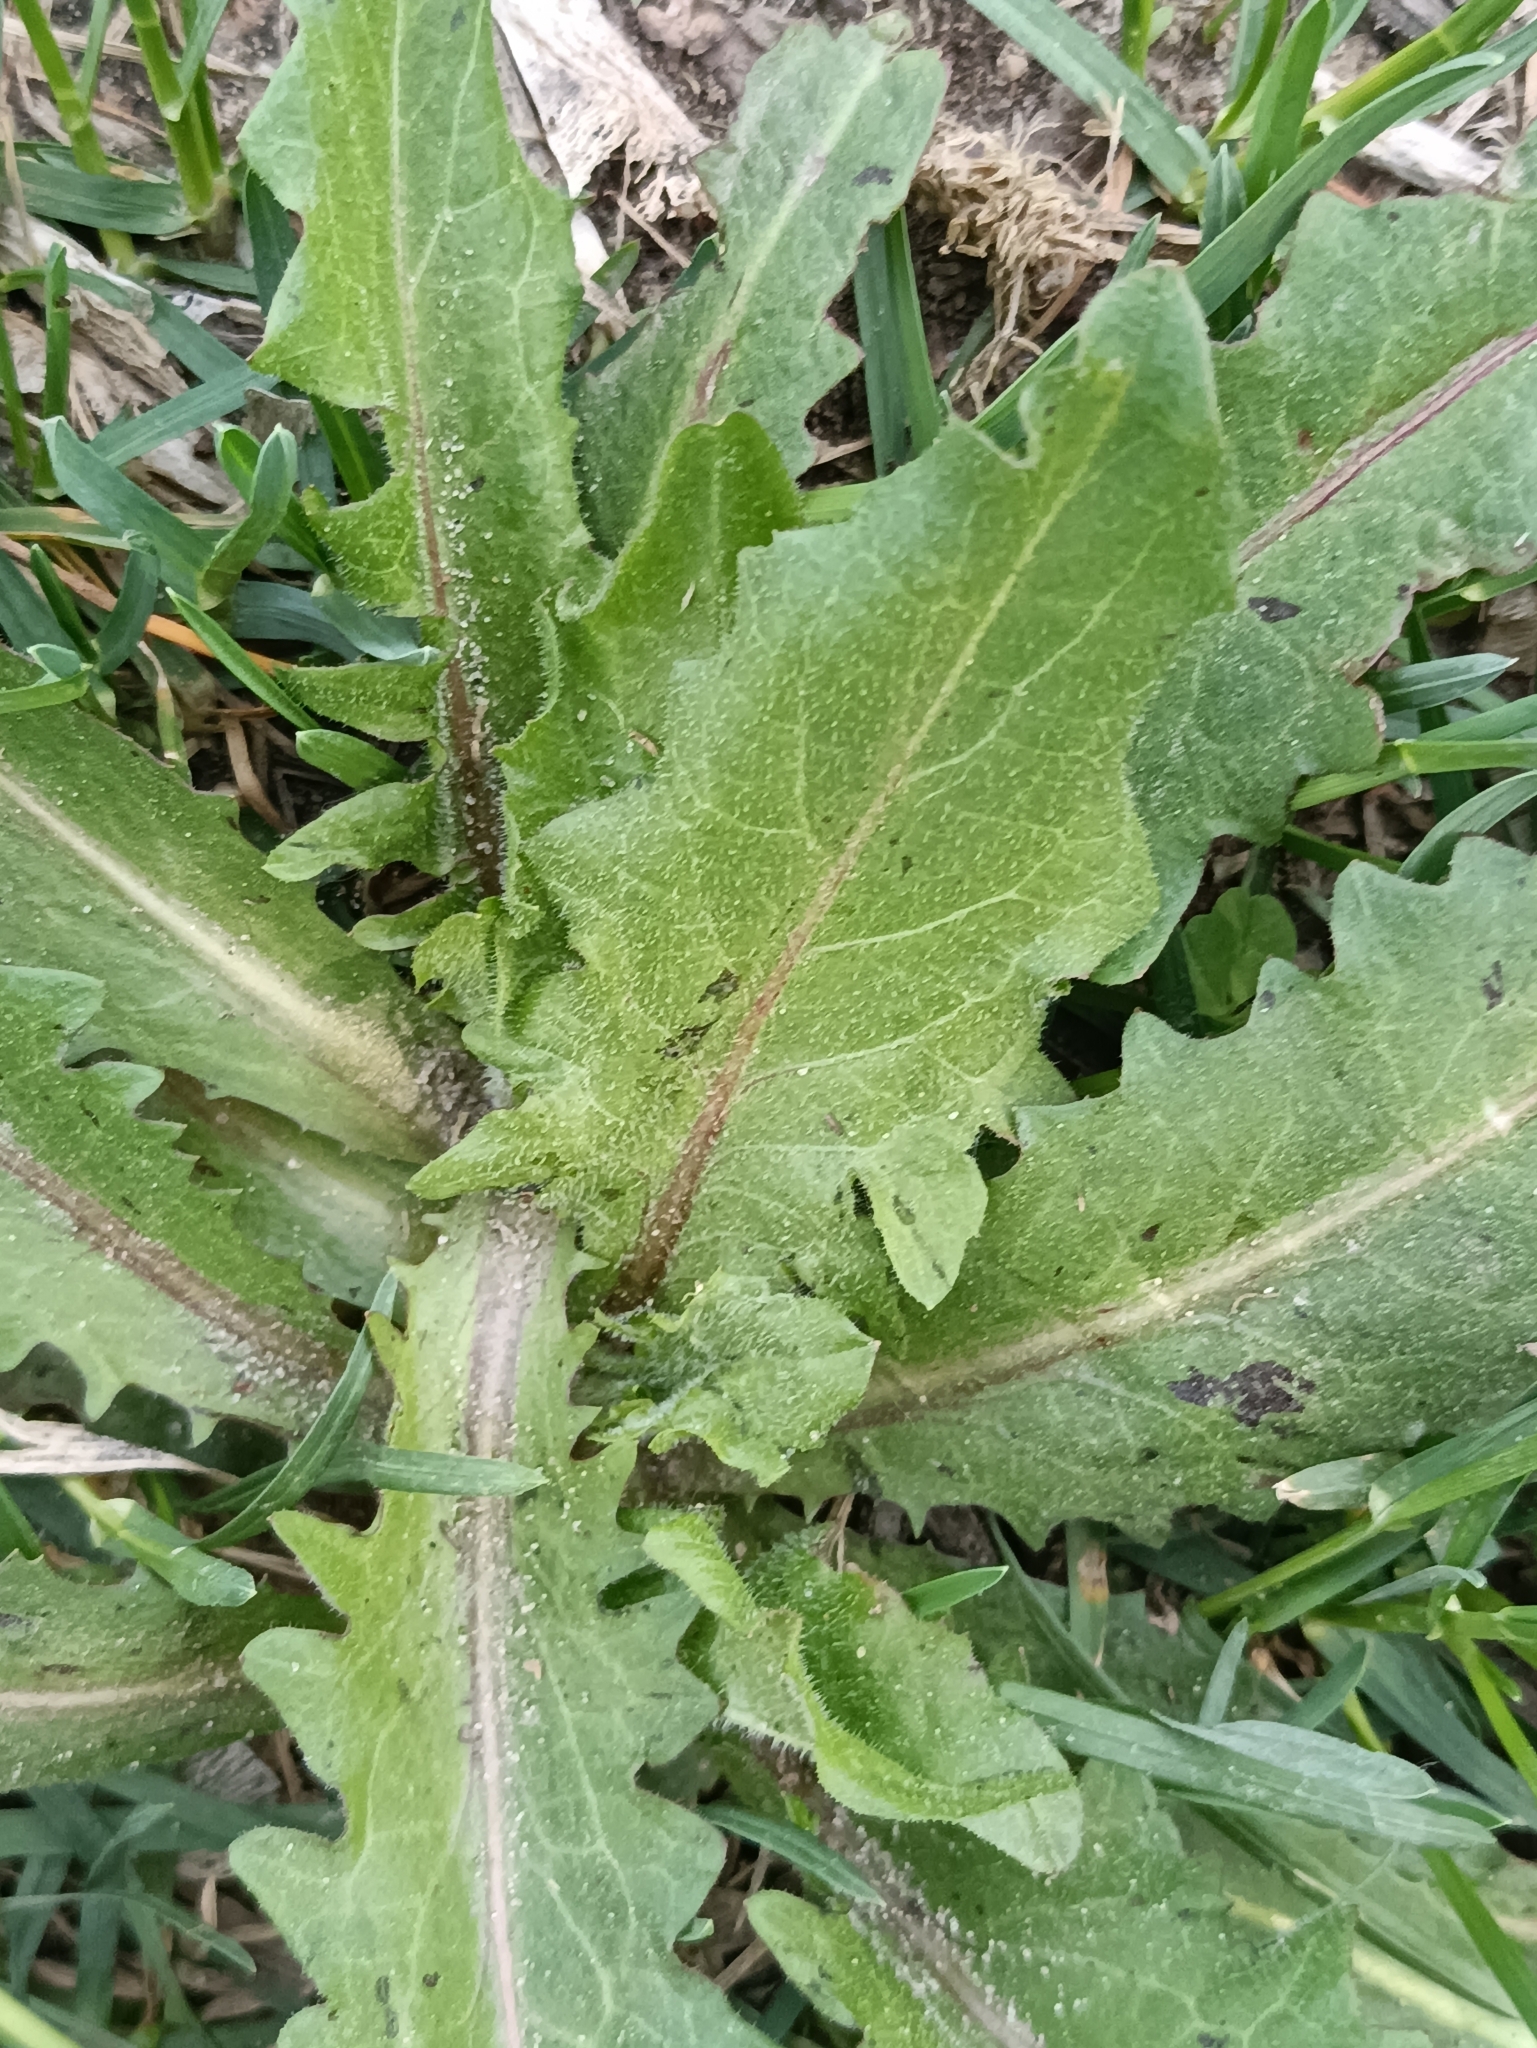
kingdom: Plantae
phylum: Tracheophyta
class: Magnoliopsida
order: Asterales
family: Asteraceae
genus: Cichorium
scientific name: Cichorium intybus
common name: Chicory
